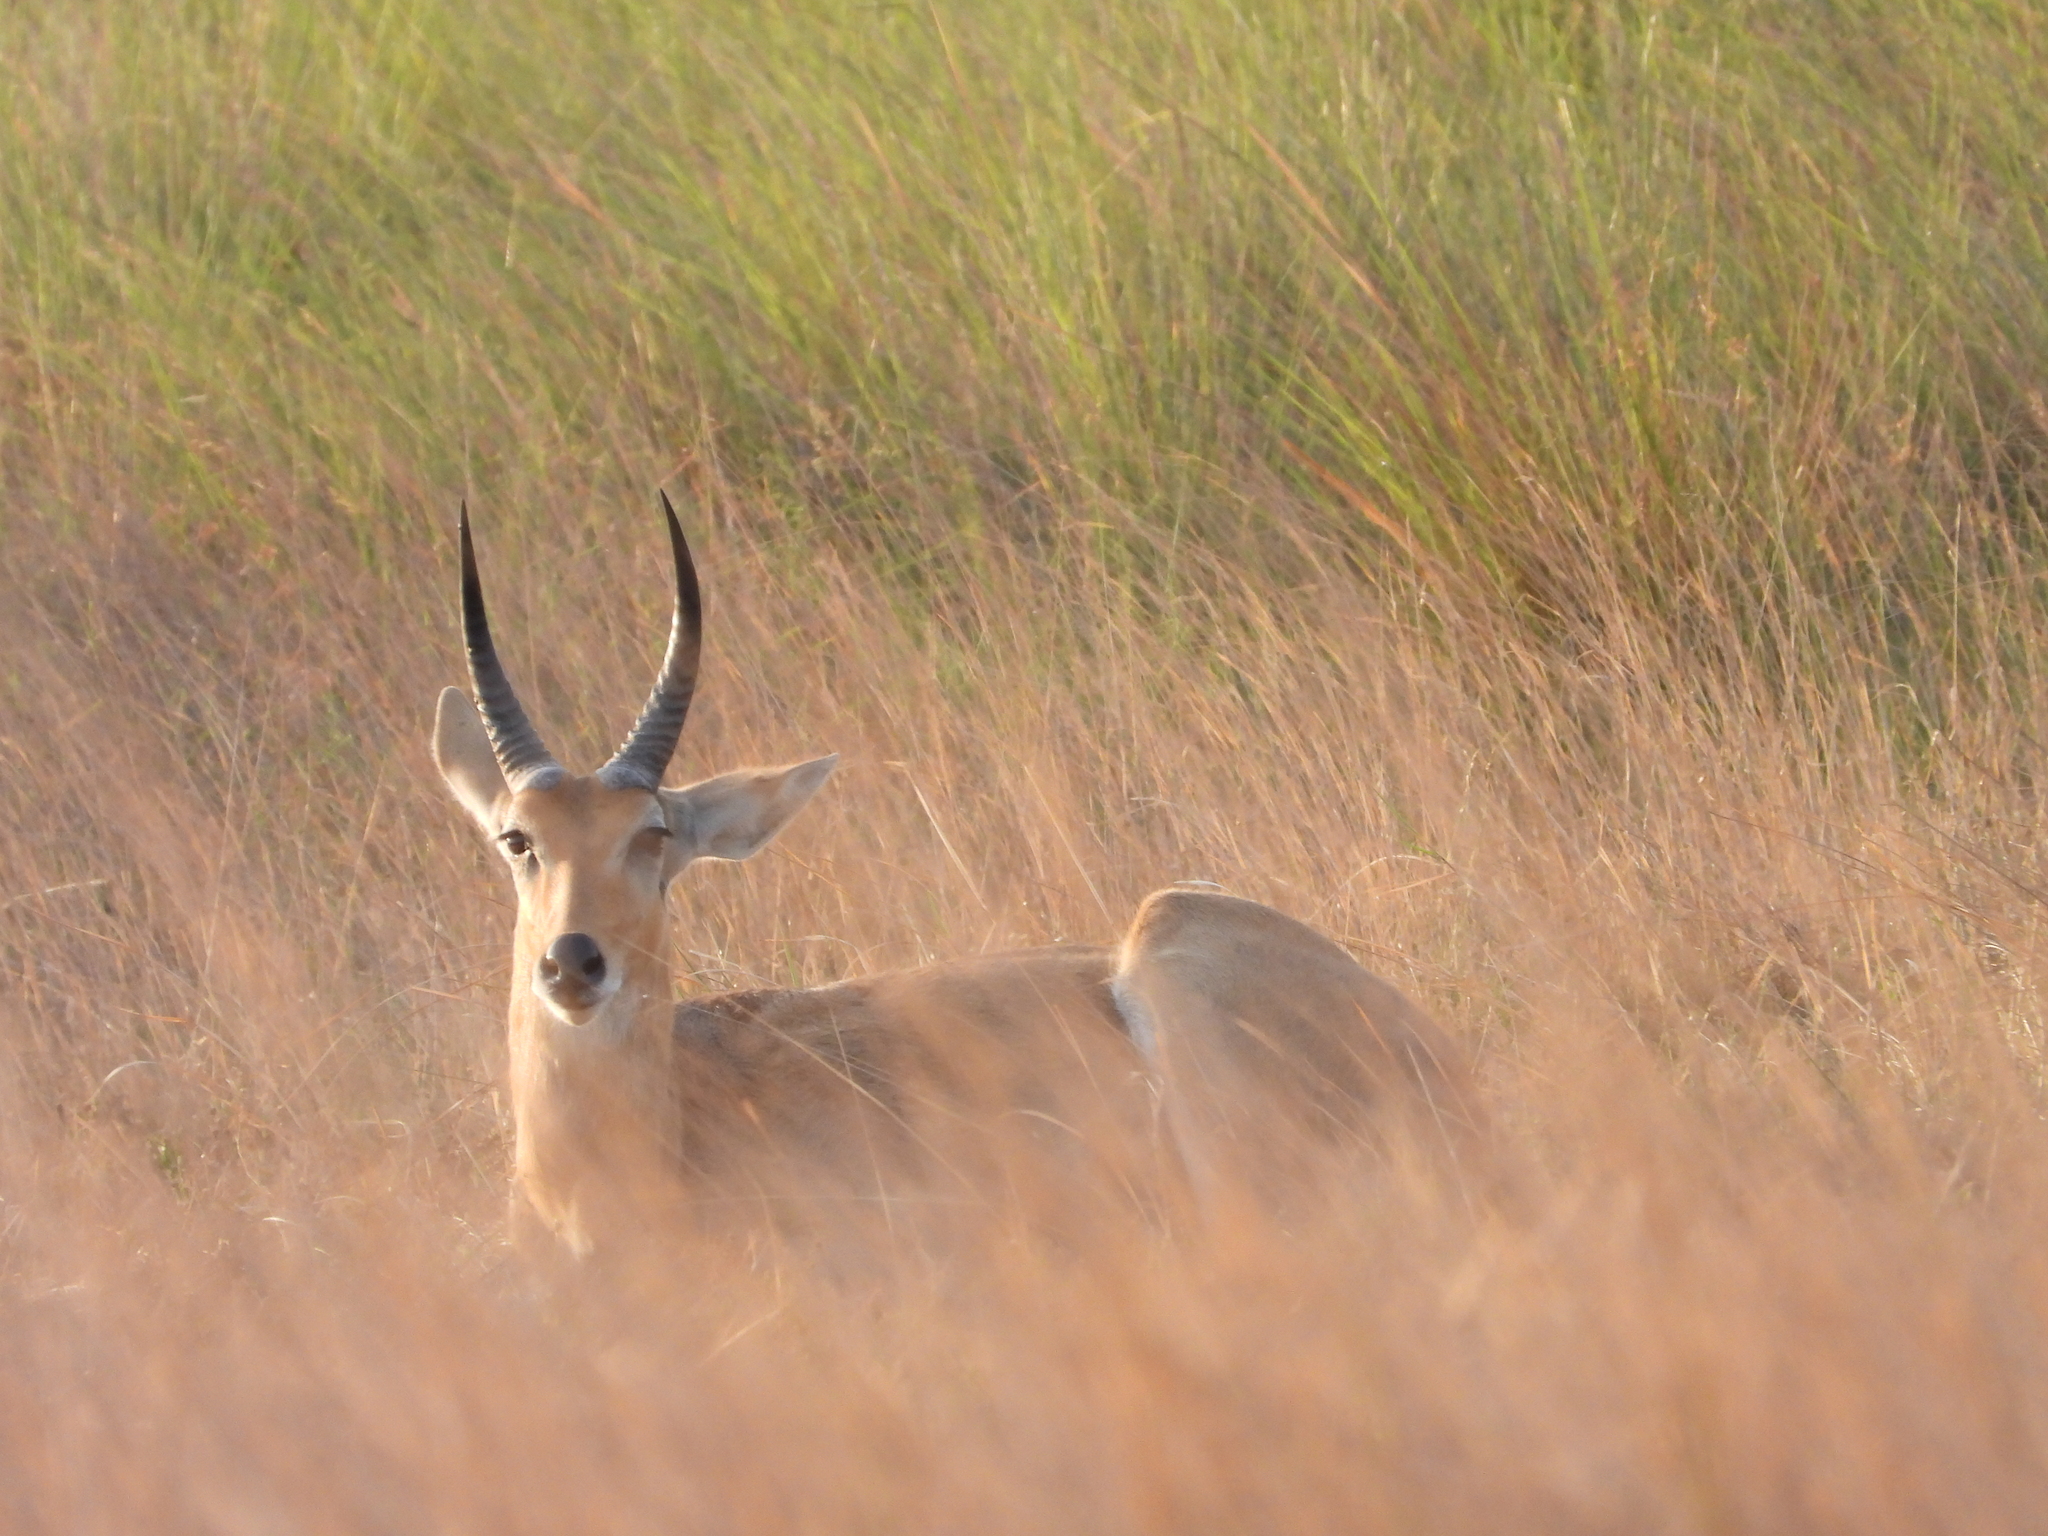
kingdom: Animalia
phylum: Chordata
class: Mammalia
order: Artiodactyla
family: Bovidae
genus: Redunca
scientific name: Redunca arundinum
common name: Southern reedbuck
